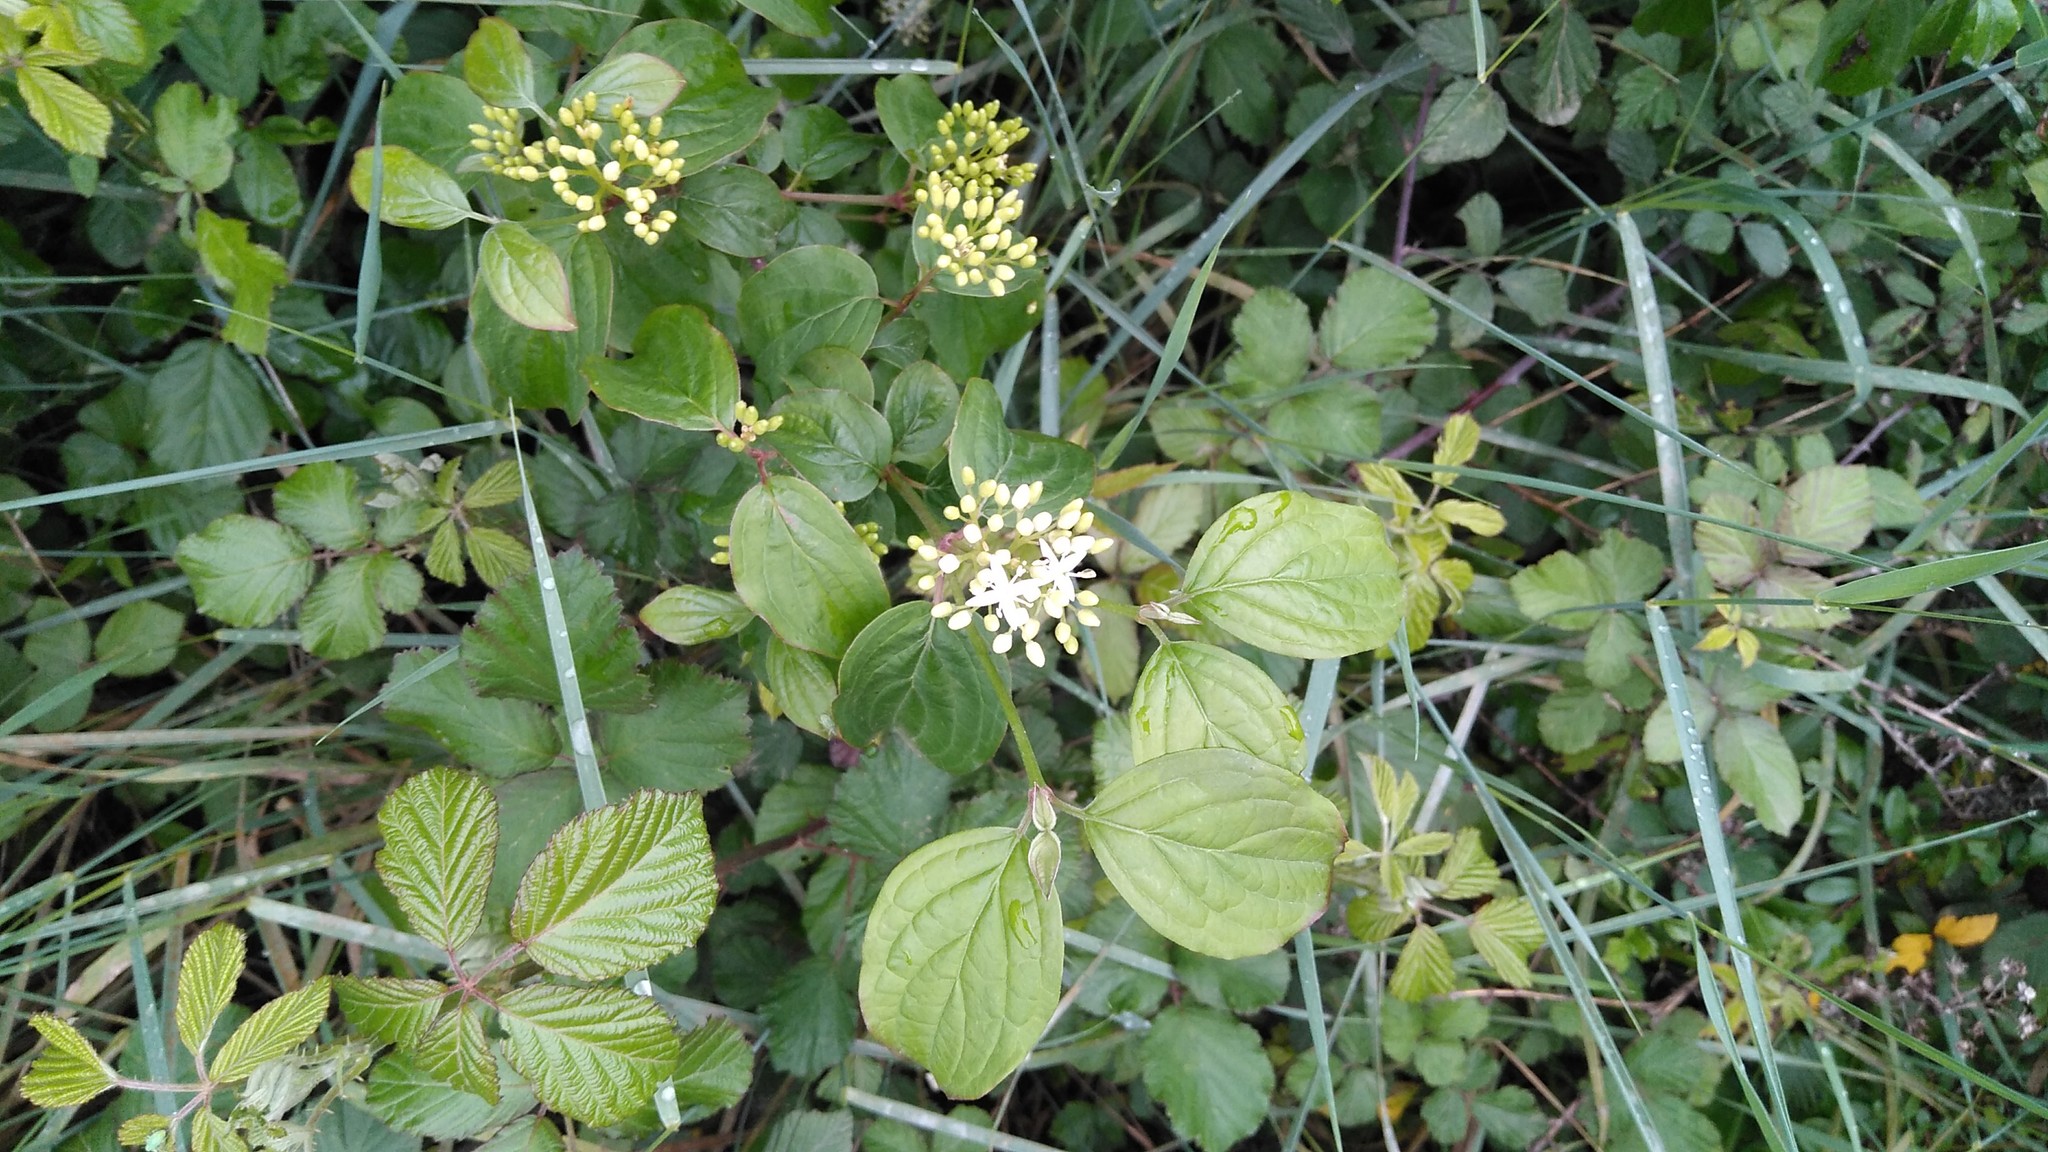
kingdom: Plantae
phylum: Tracheophyta
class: Magnoliopsida
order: Cornales
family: Cornaceae
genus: Cornus
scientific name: Cornus sanguinea
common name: Dogwood
